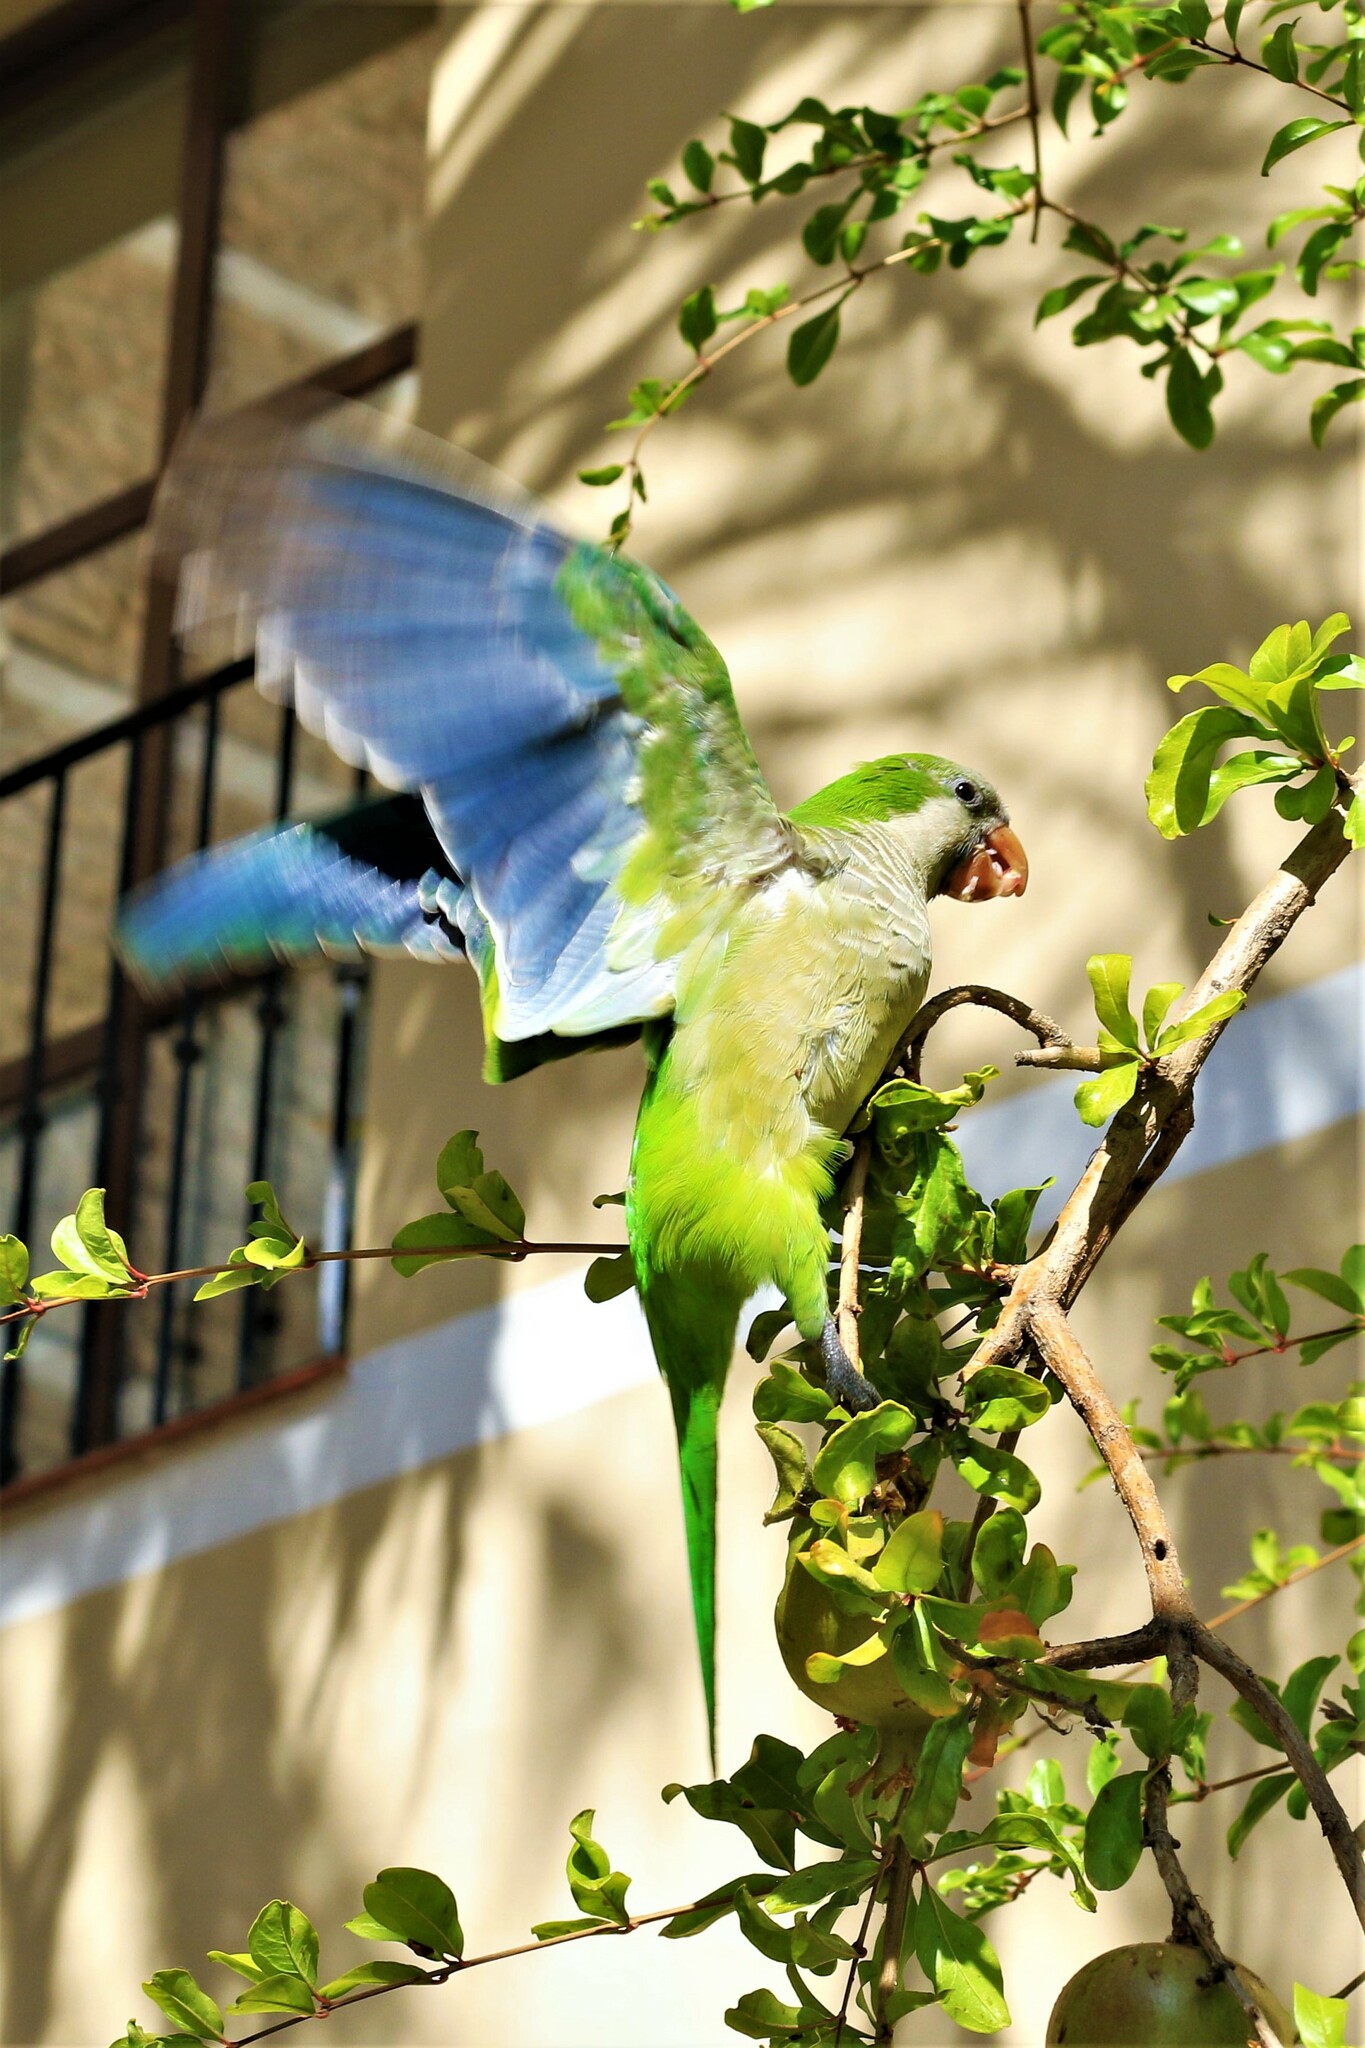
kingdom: Animalia
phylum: Chordata
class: Aves
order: Psittaciformes
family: Psittacidae
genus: Myiopsitta
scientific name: Myiopsitta monachus
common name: Monk parakeet
